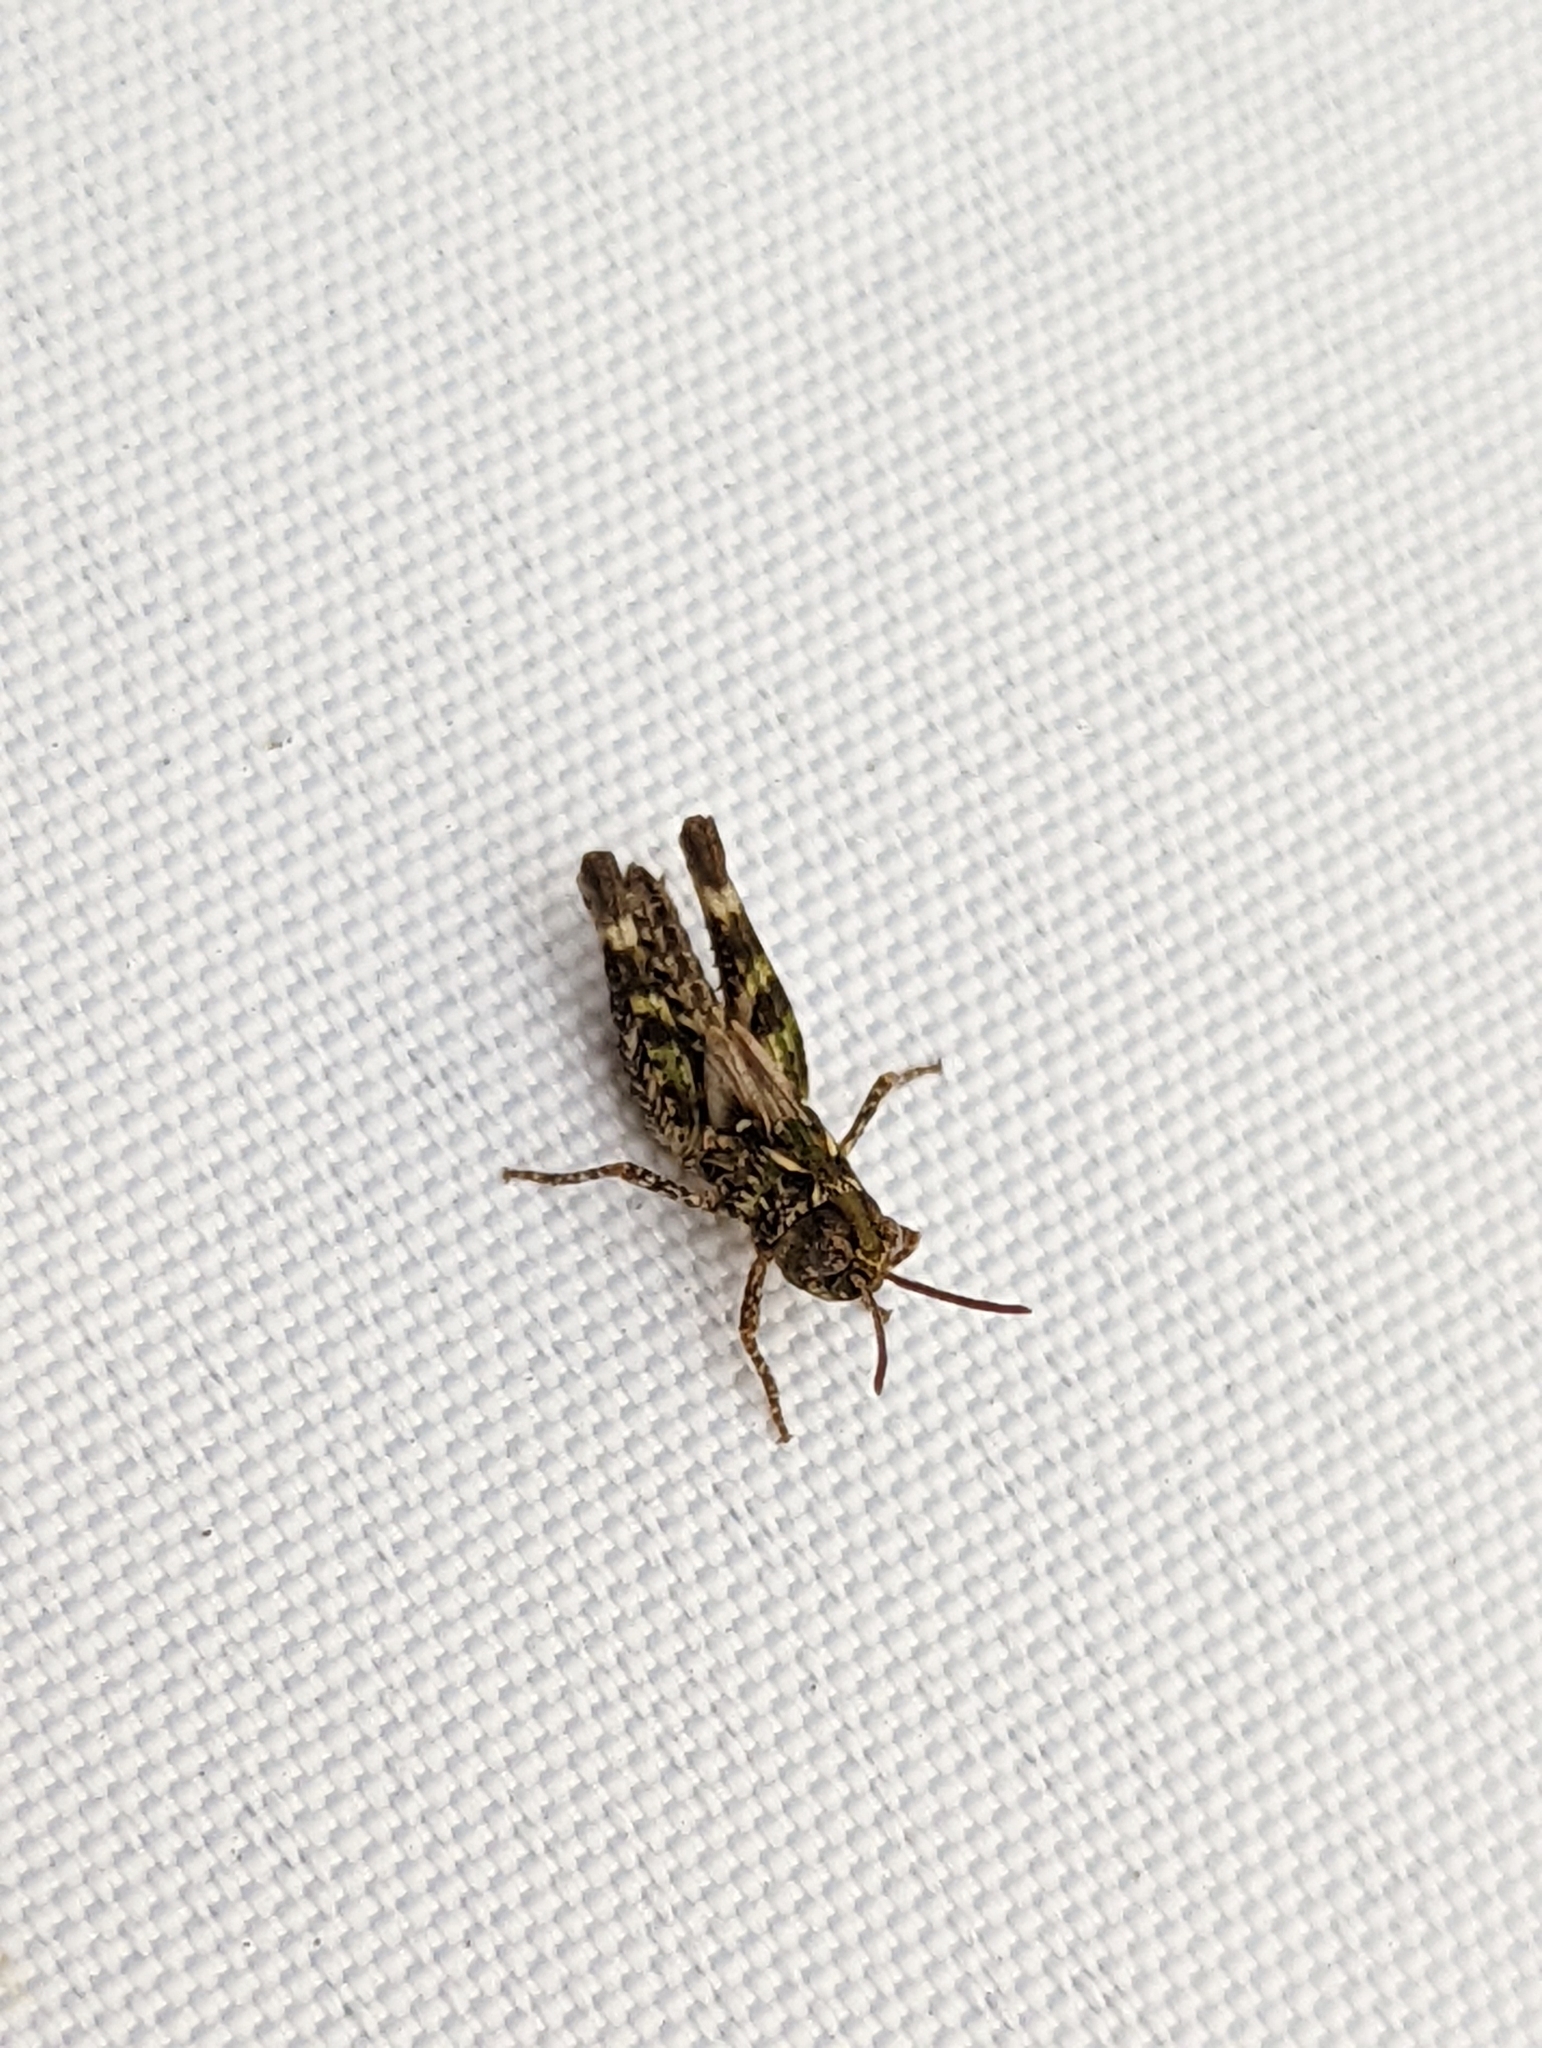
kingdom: Animalia
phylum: Arthropoda
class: Insecta
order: Orthoptera
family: Acrididae
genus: Myrmeleotettix
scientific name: Myrmeleotettix maculatus
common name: Mottled grasshopper
